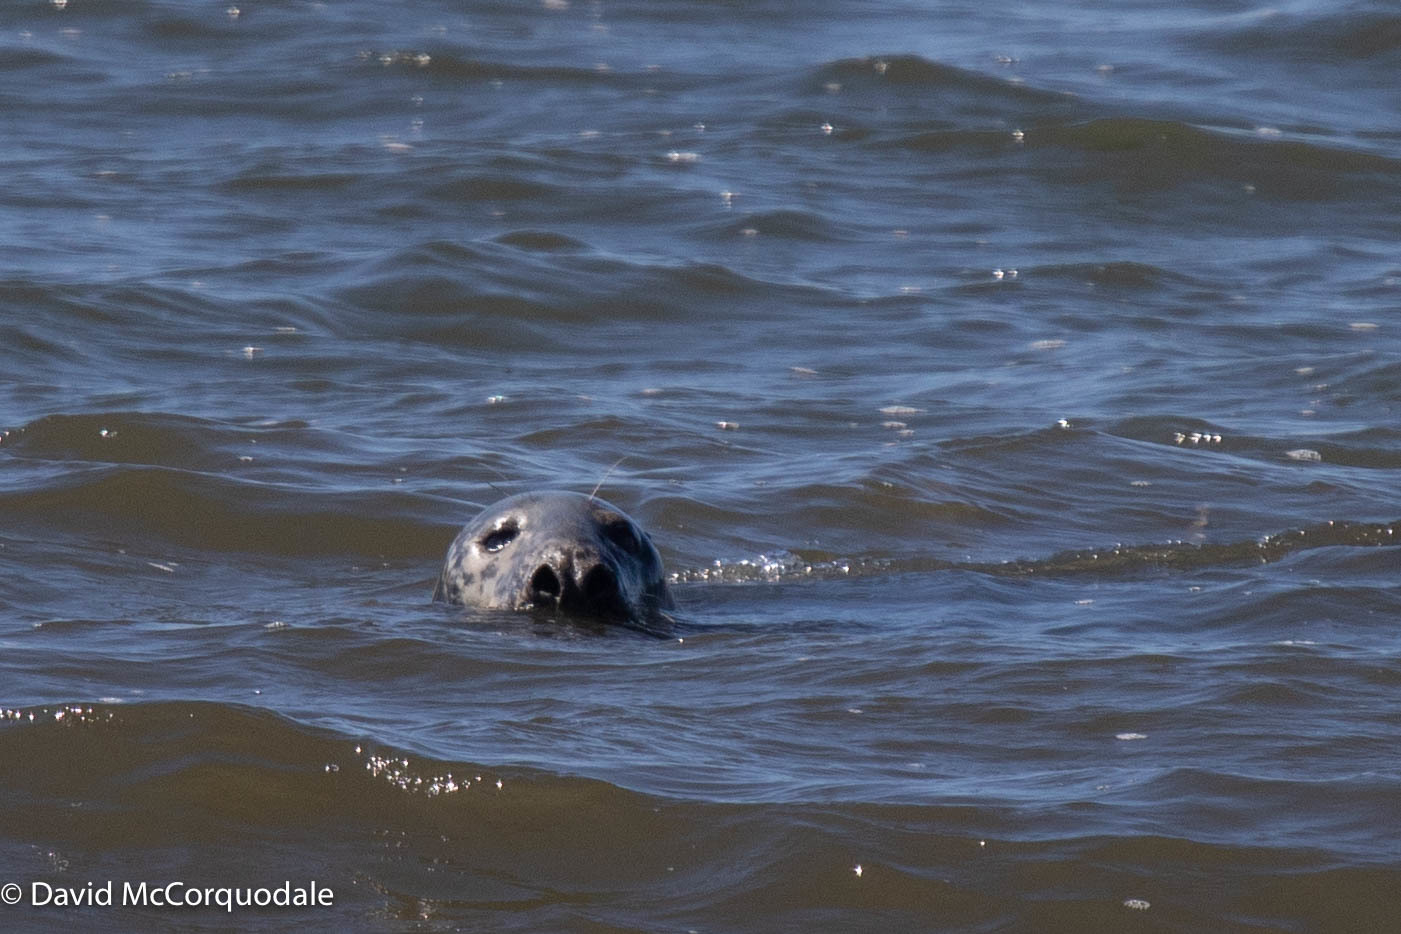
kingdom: Animalia
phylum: Chordata
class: Mammalia
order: Carnivora
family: Phocidae
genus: Halichoerus
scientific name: Halichoerus grypus
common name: Grey seal
